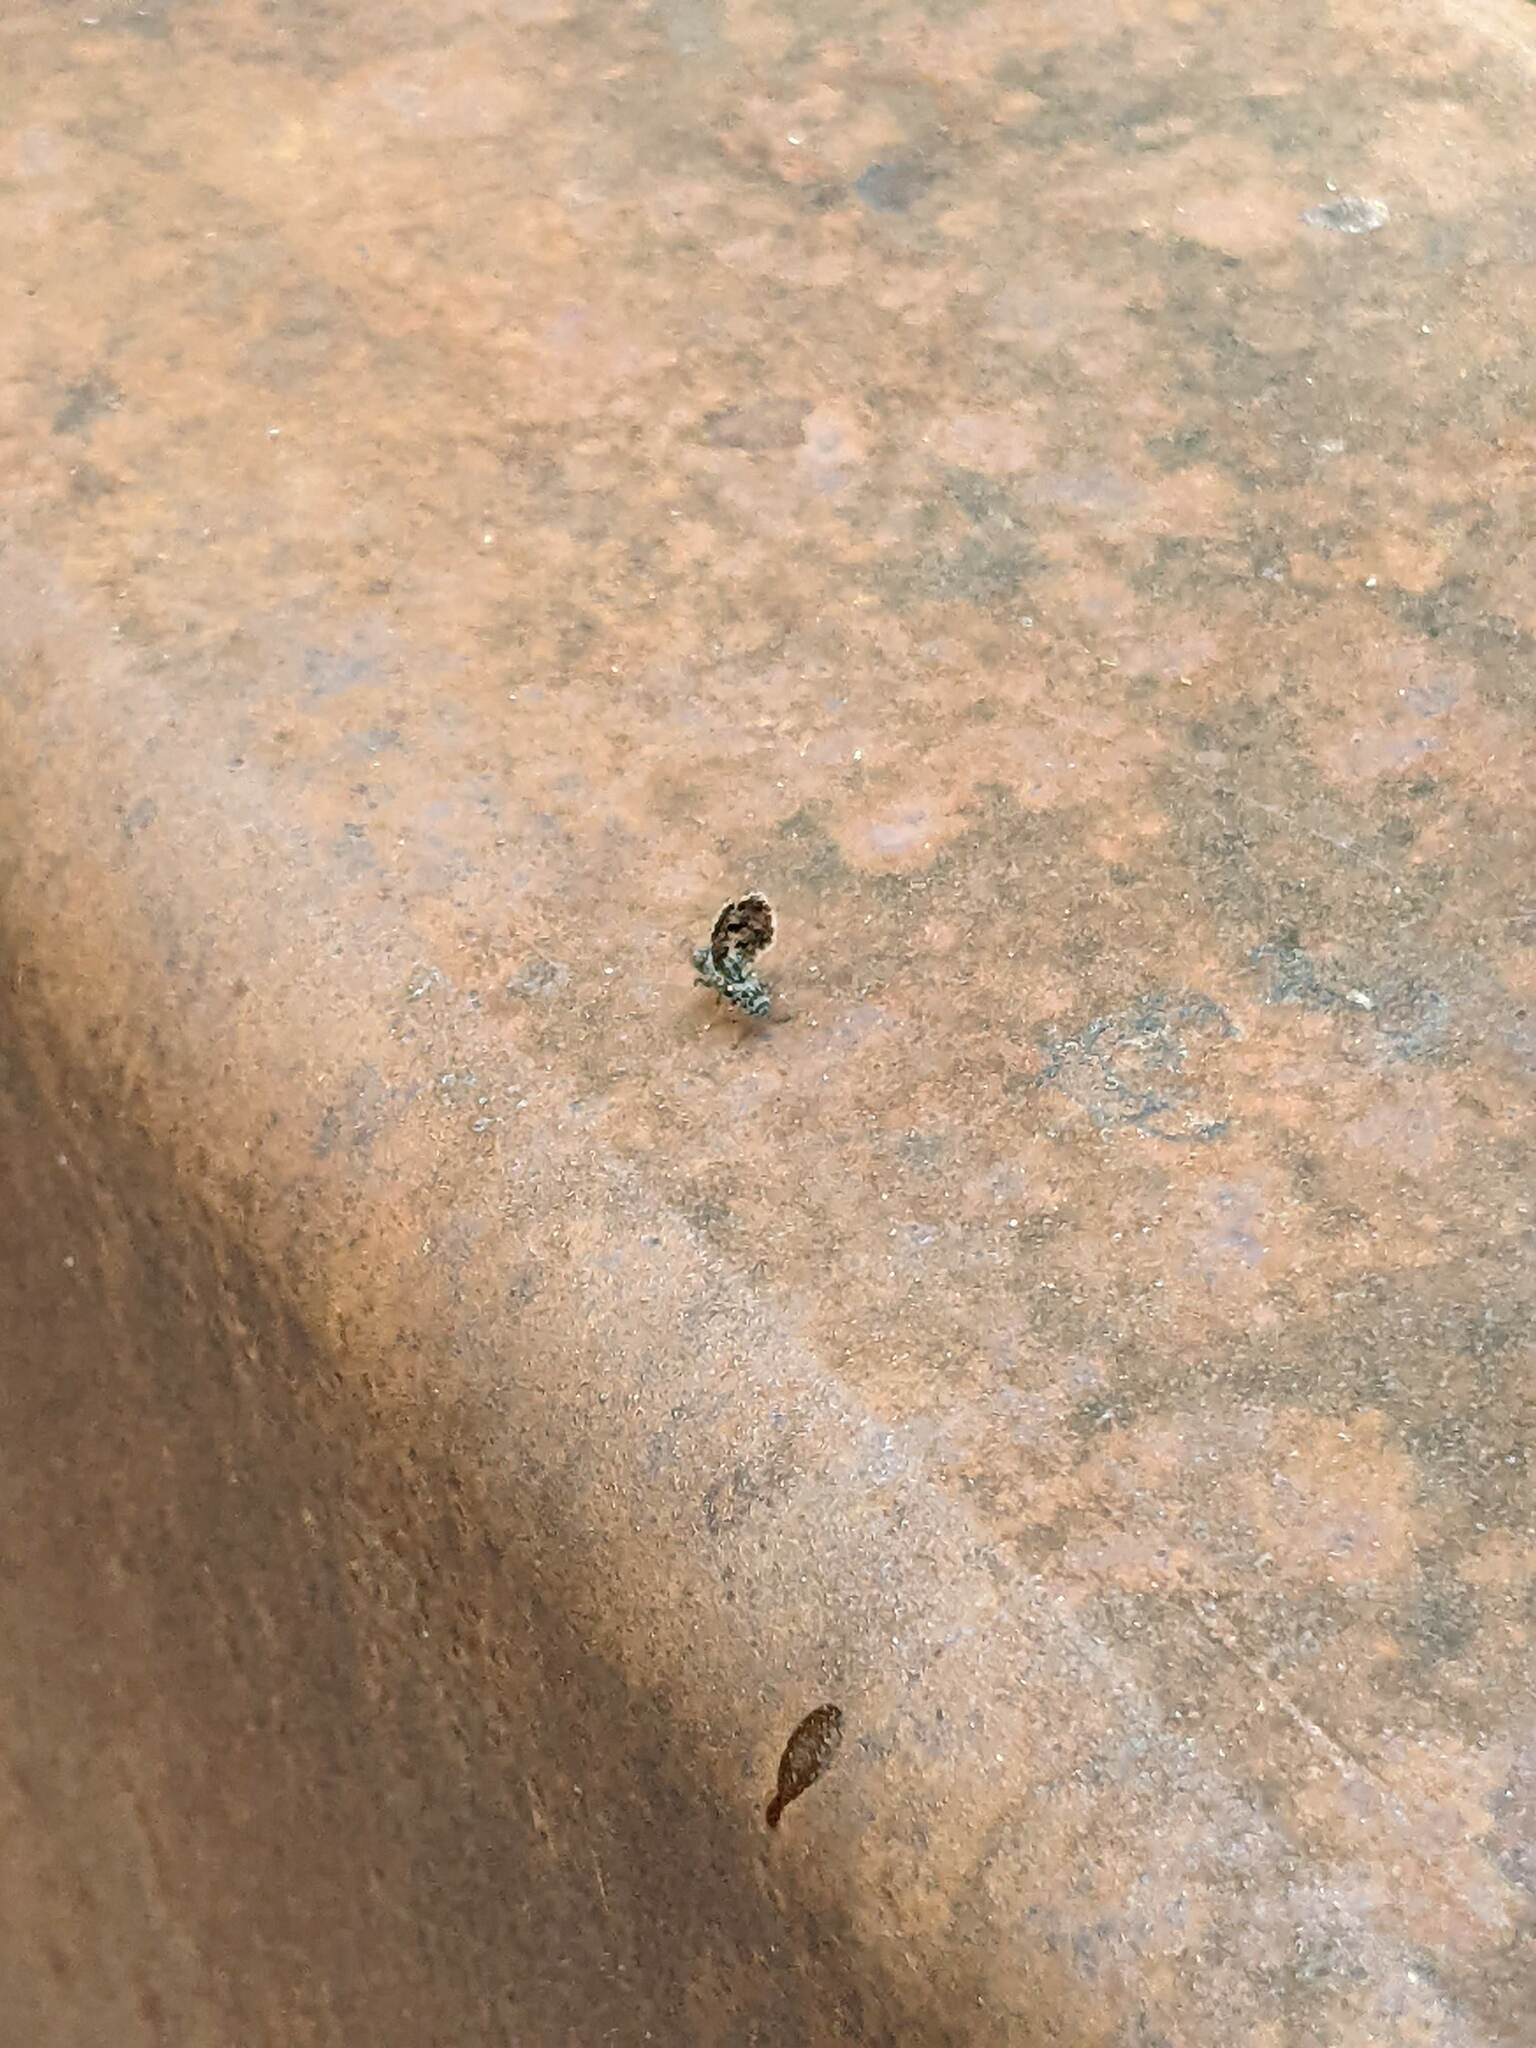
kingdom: Animalia
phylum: Arthropoda
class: Insecta
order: Diptera
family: Ulidiidae
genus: Callopistromyia
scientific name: Callopistromyia annulipes
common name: Peacock fly
